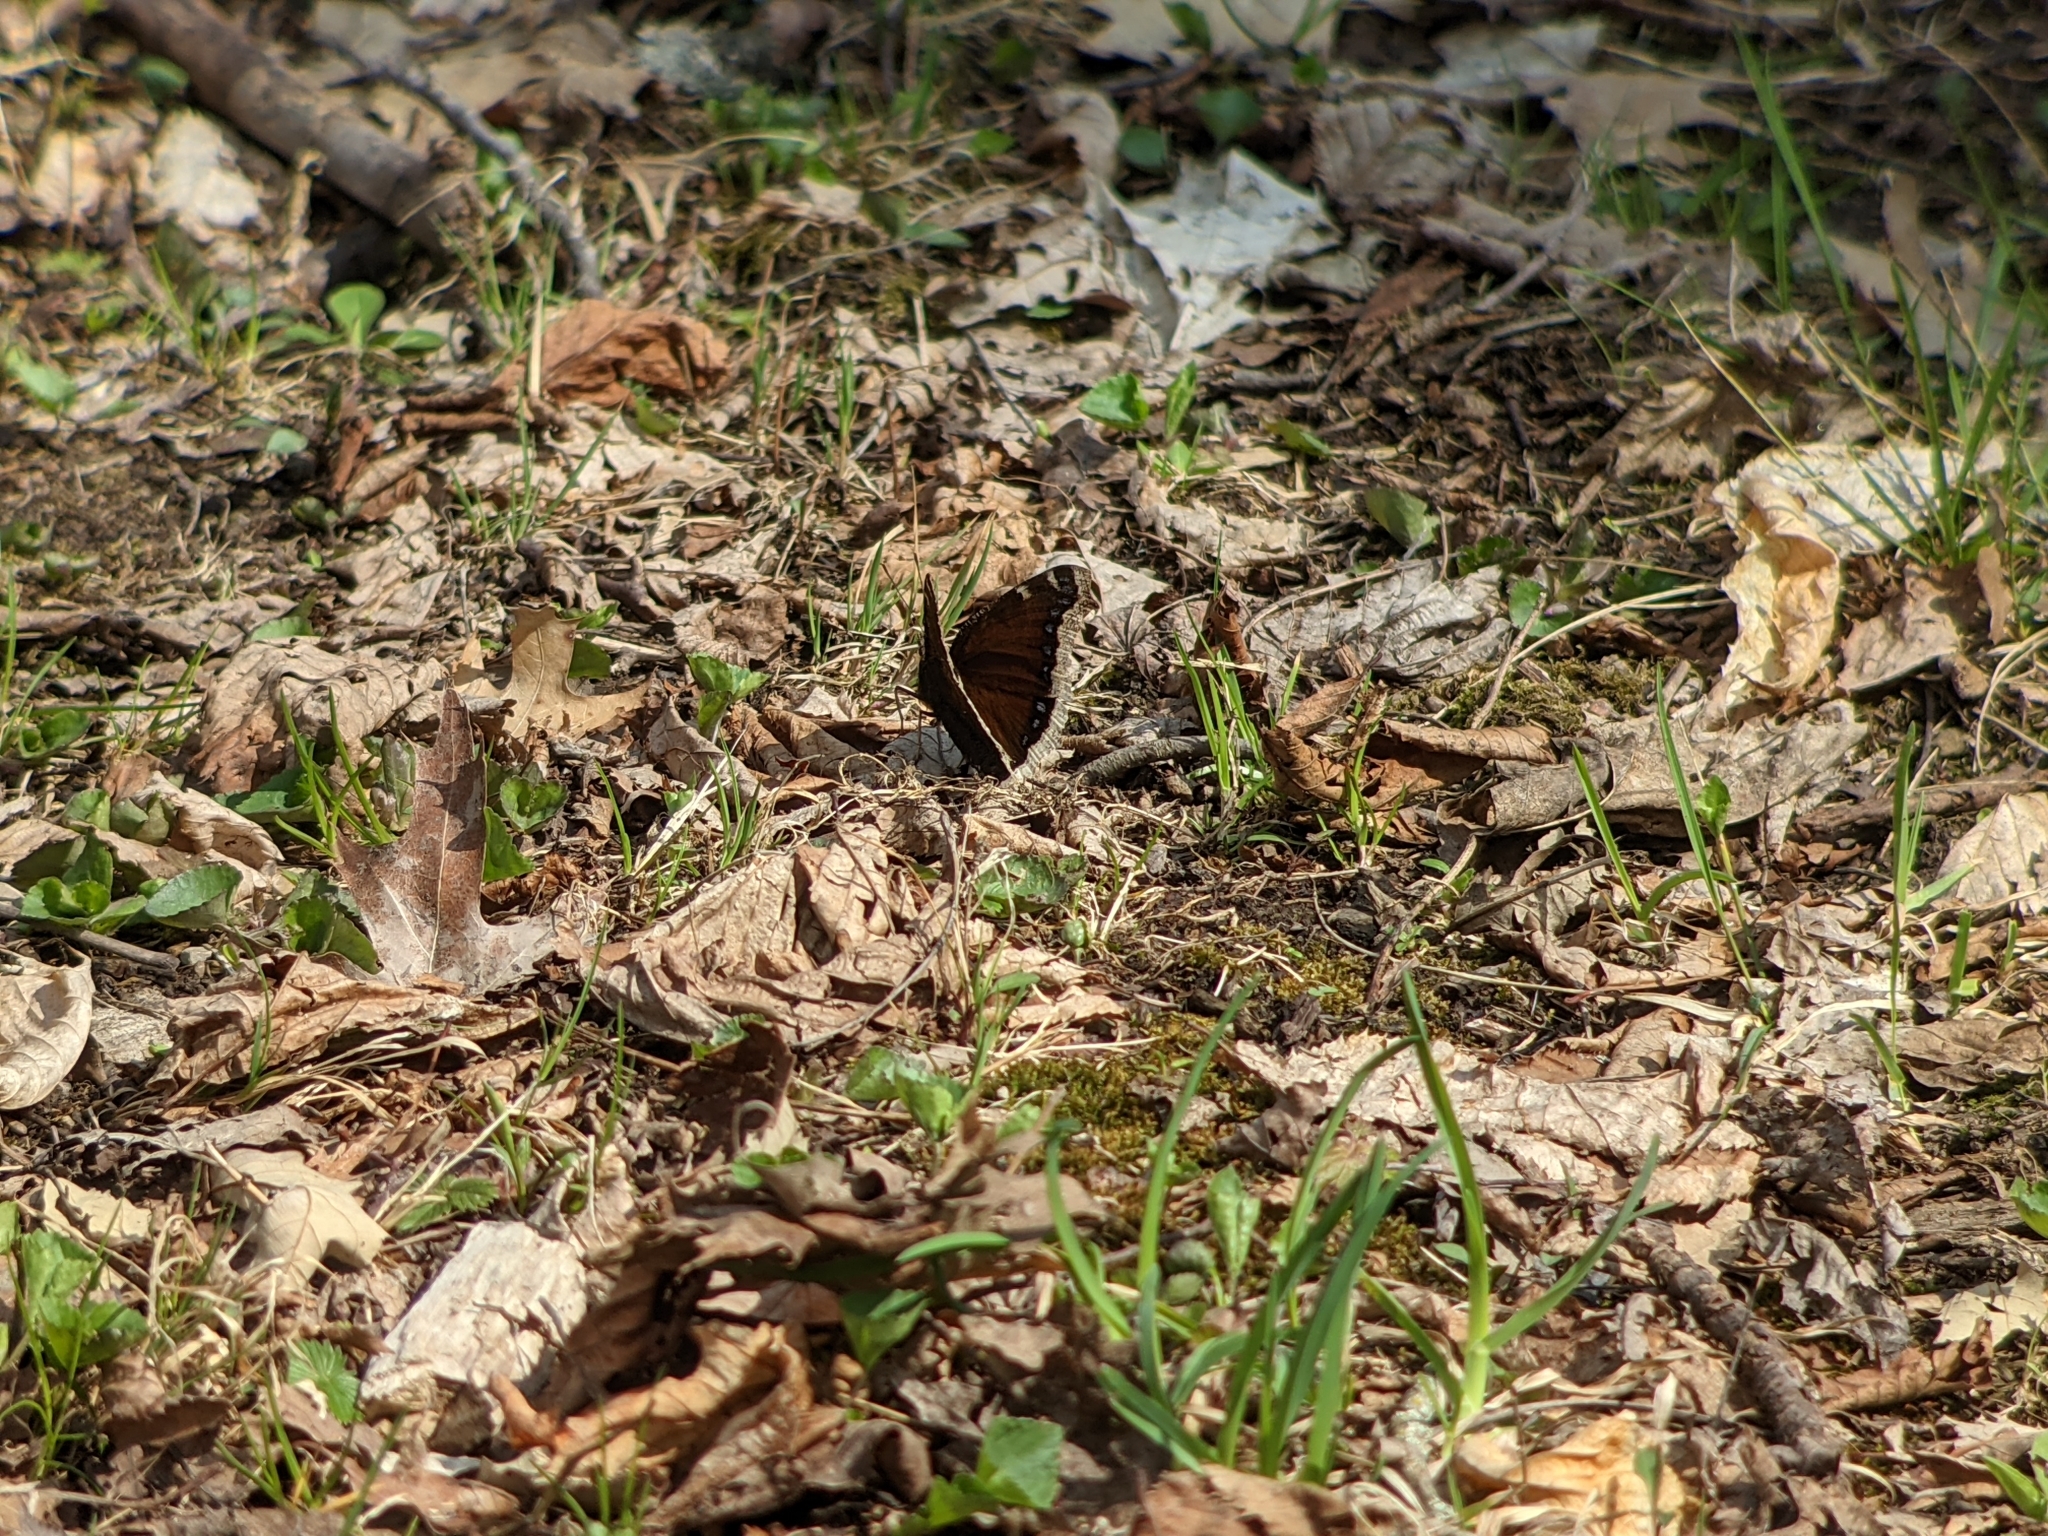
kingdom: Animalia
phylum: Arthropoda
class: Insecta
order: Lepidoptera
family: Nymphalidae
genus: Nymphalis
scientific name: Nymphalis antiopa
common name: Camberwell beauty
